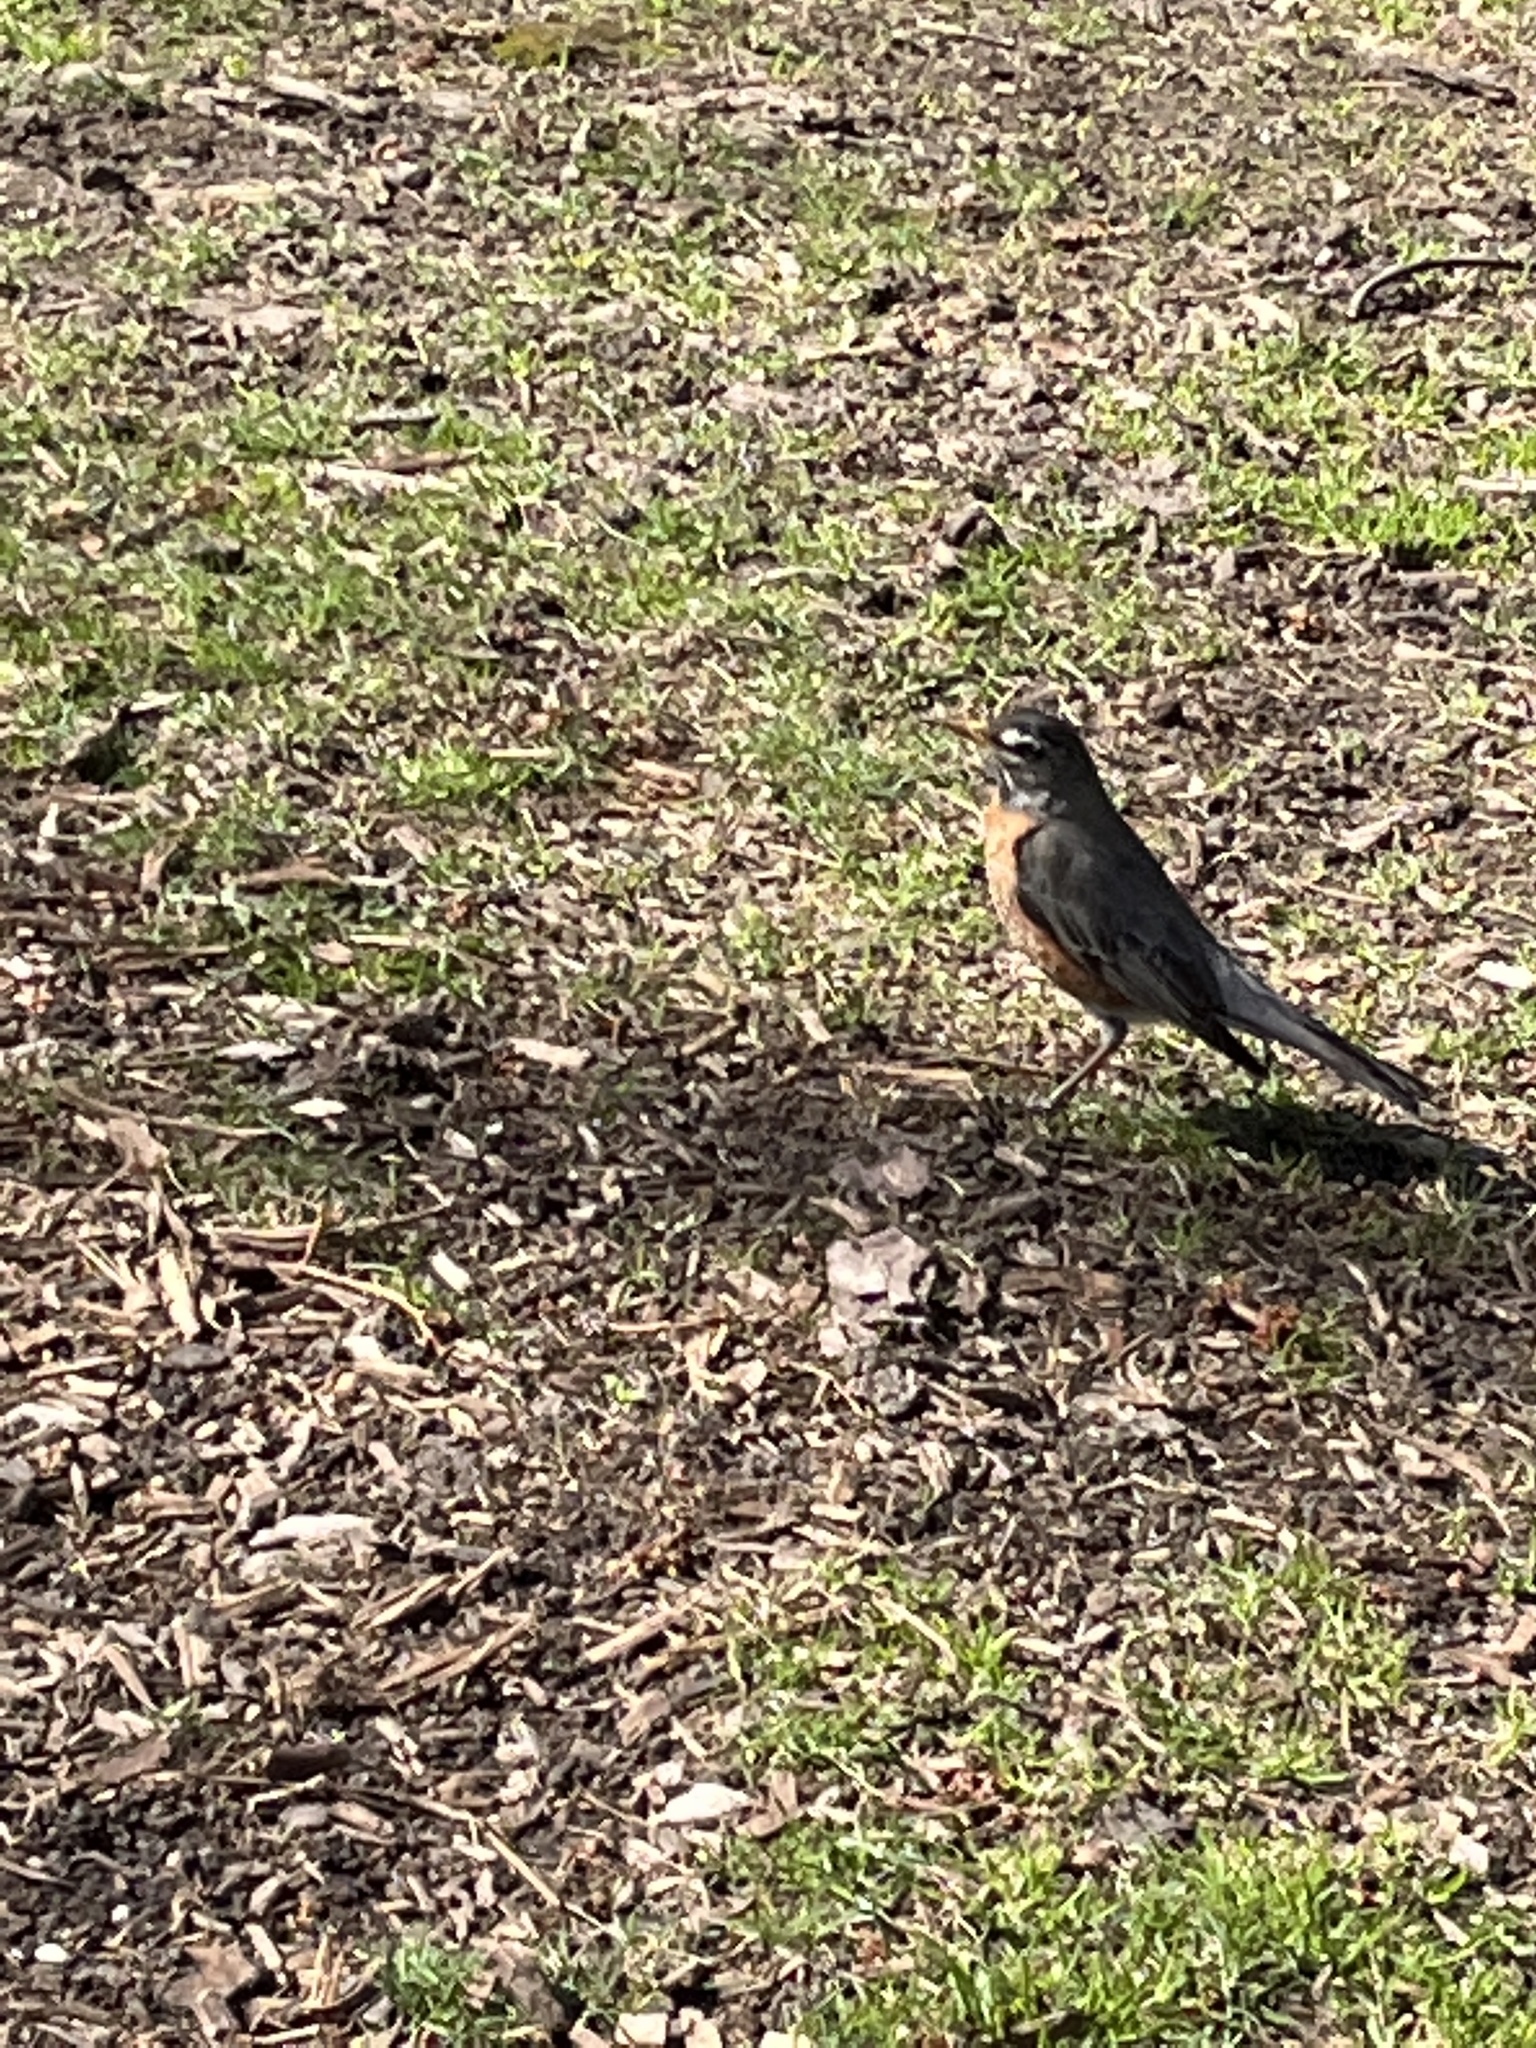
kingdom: Animalia
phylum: Chordata
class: Aves
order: Passeriformes
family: Turdidae
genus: Turdus
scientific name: Turdus migratorius
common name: American robin
